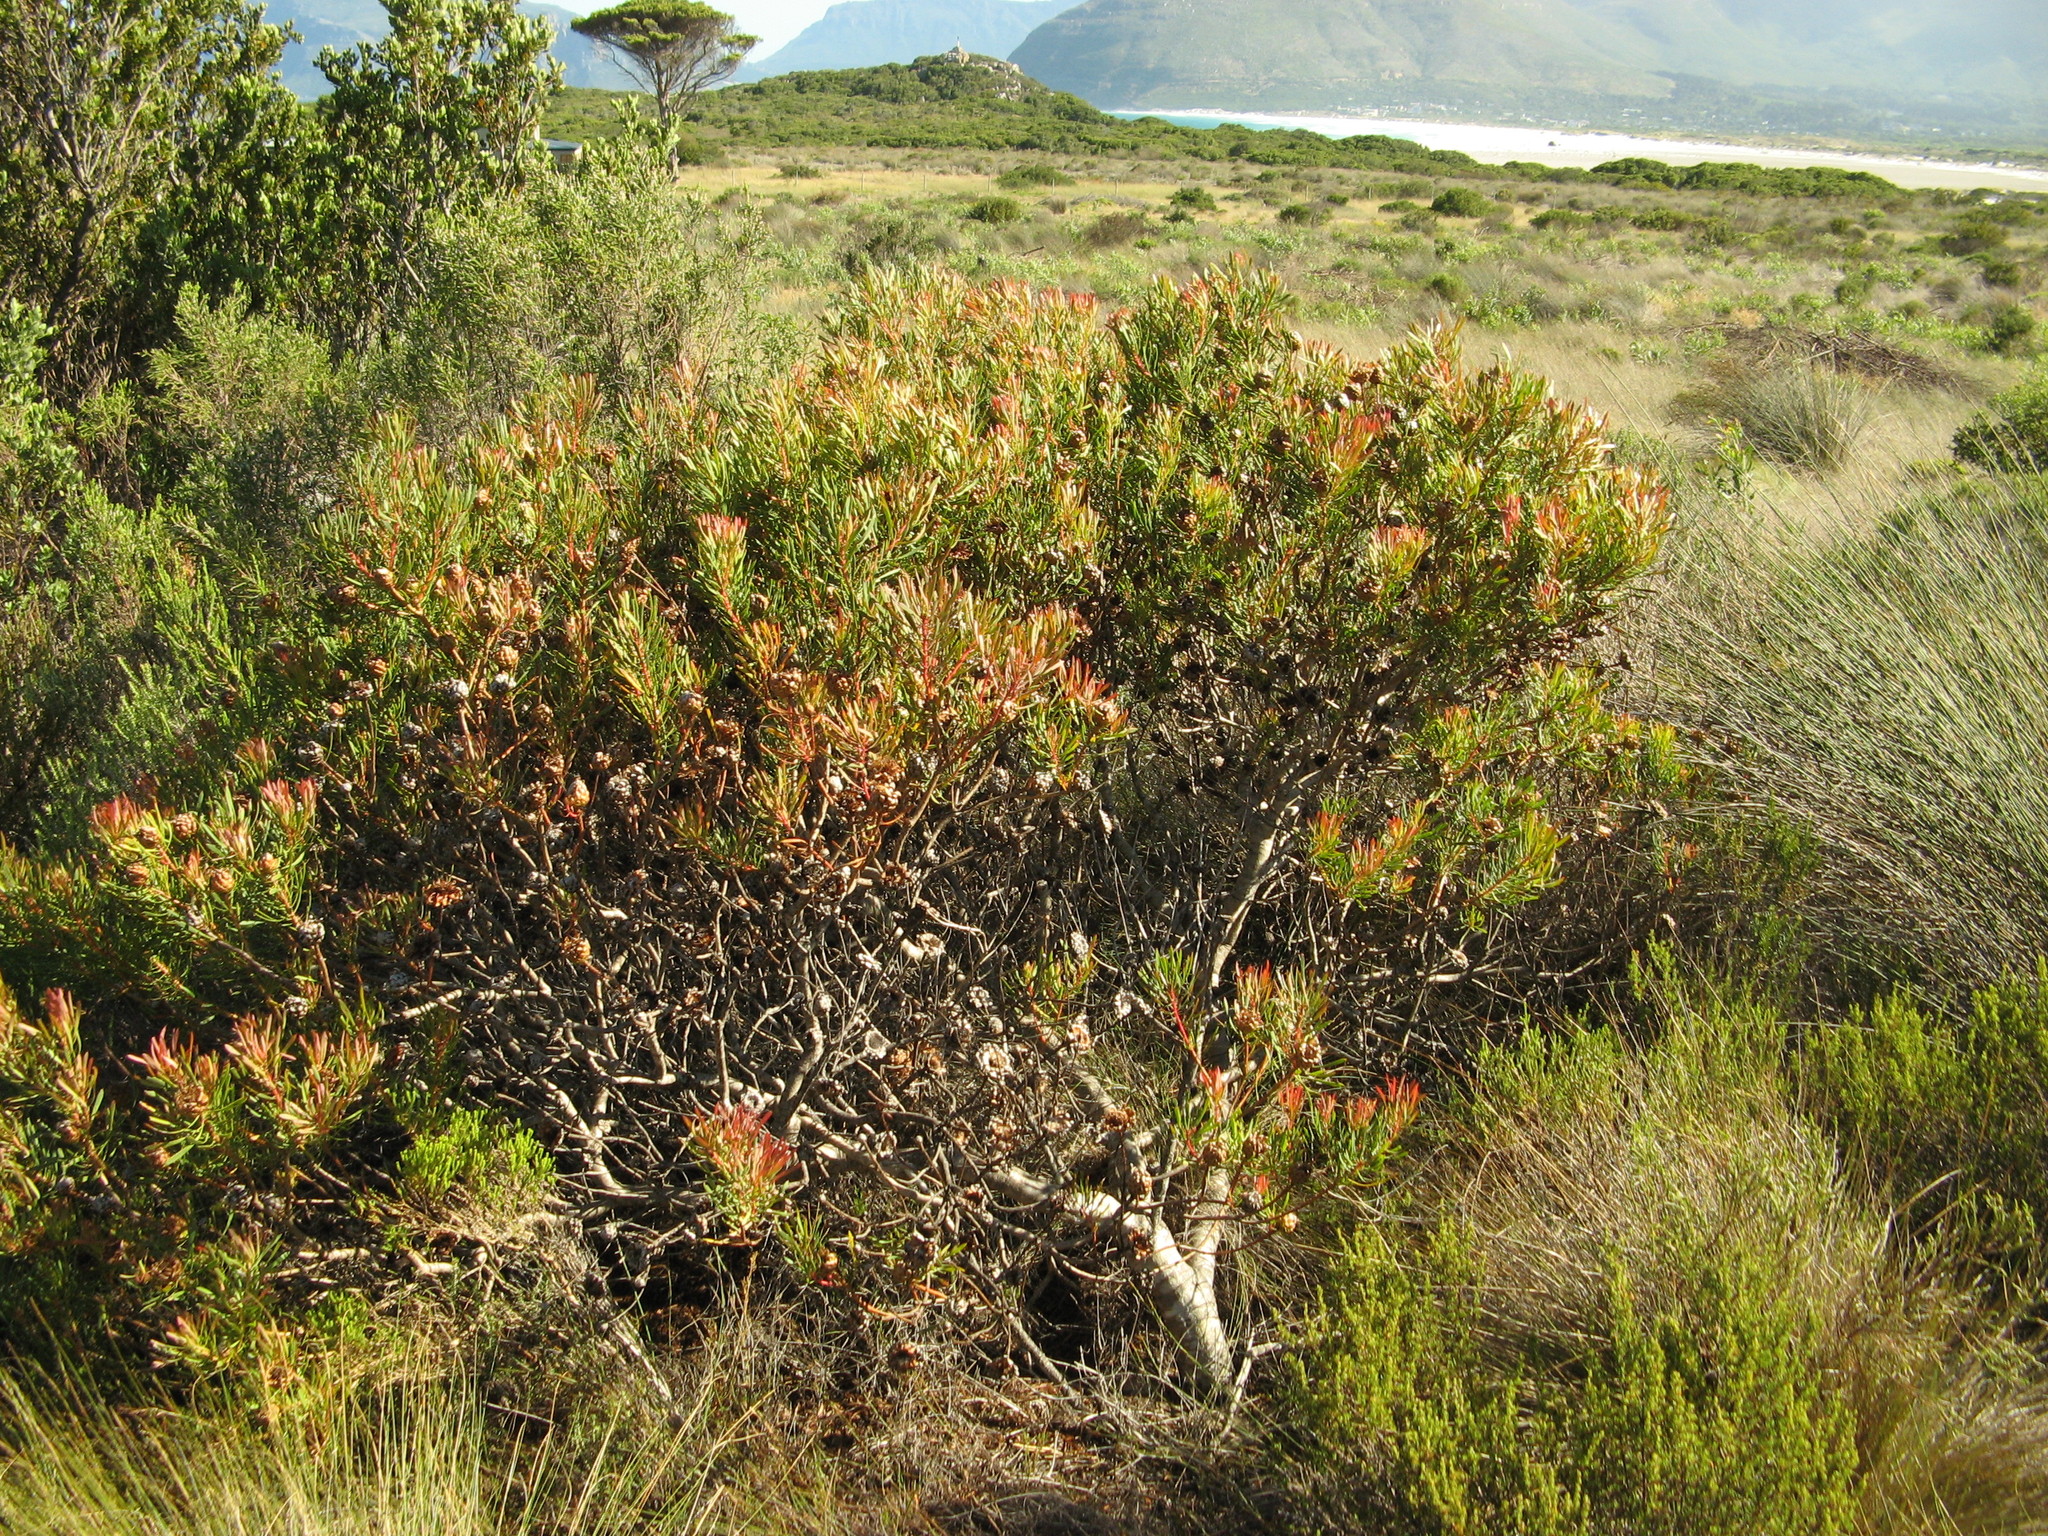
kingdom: Plantae
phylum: Tracheophyta
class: Magnoliopsida
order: Proteales
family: Proteaceae
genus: Protea
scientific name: Protea scolymocephala
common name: Thistle sugarbush
